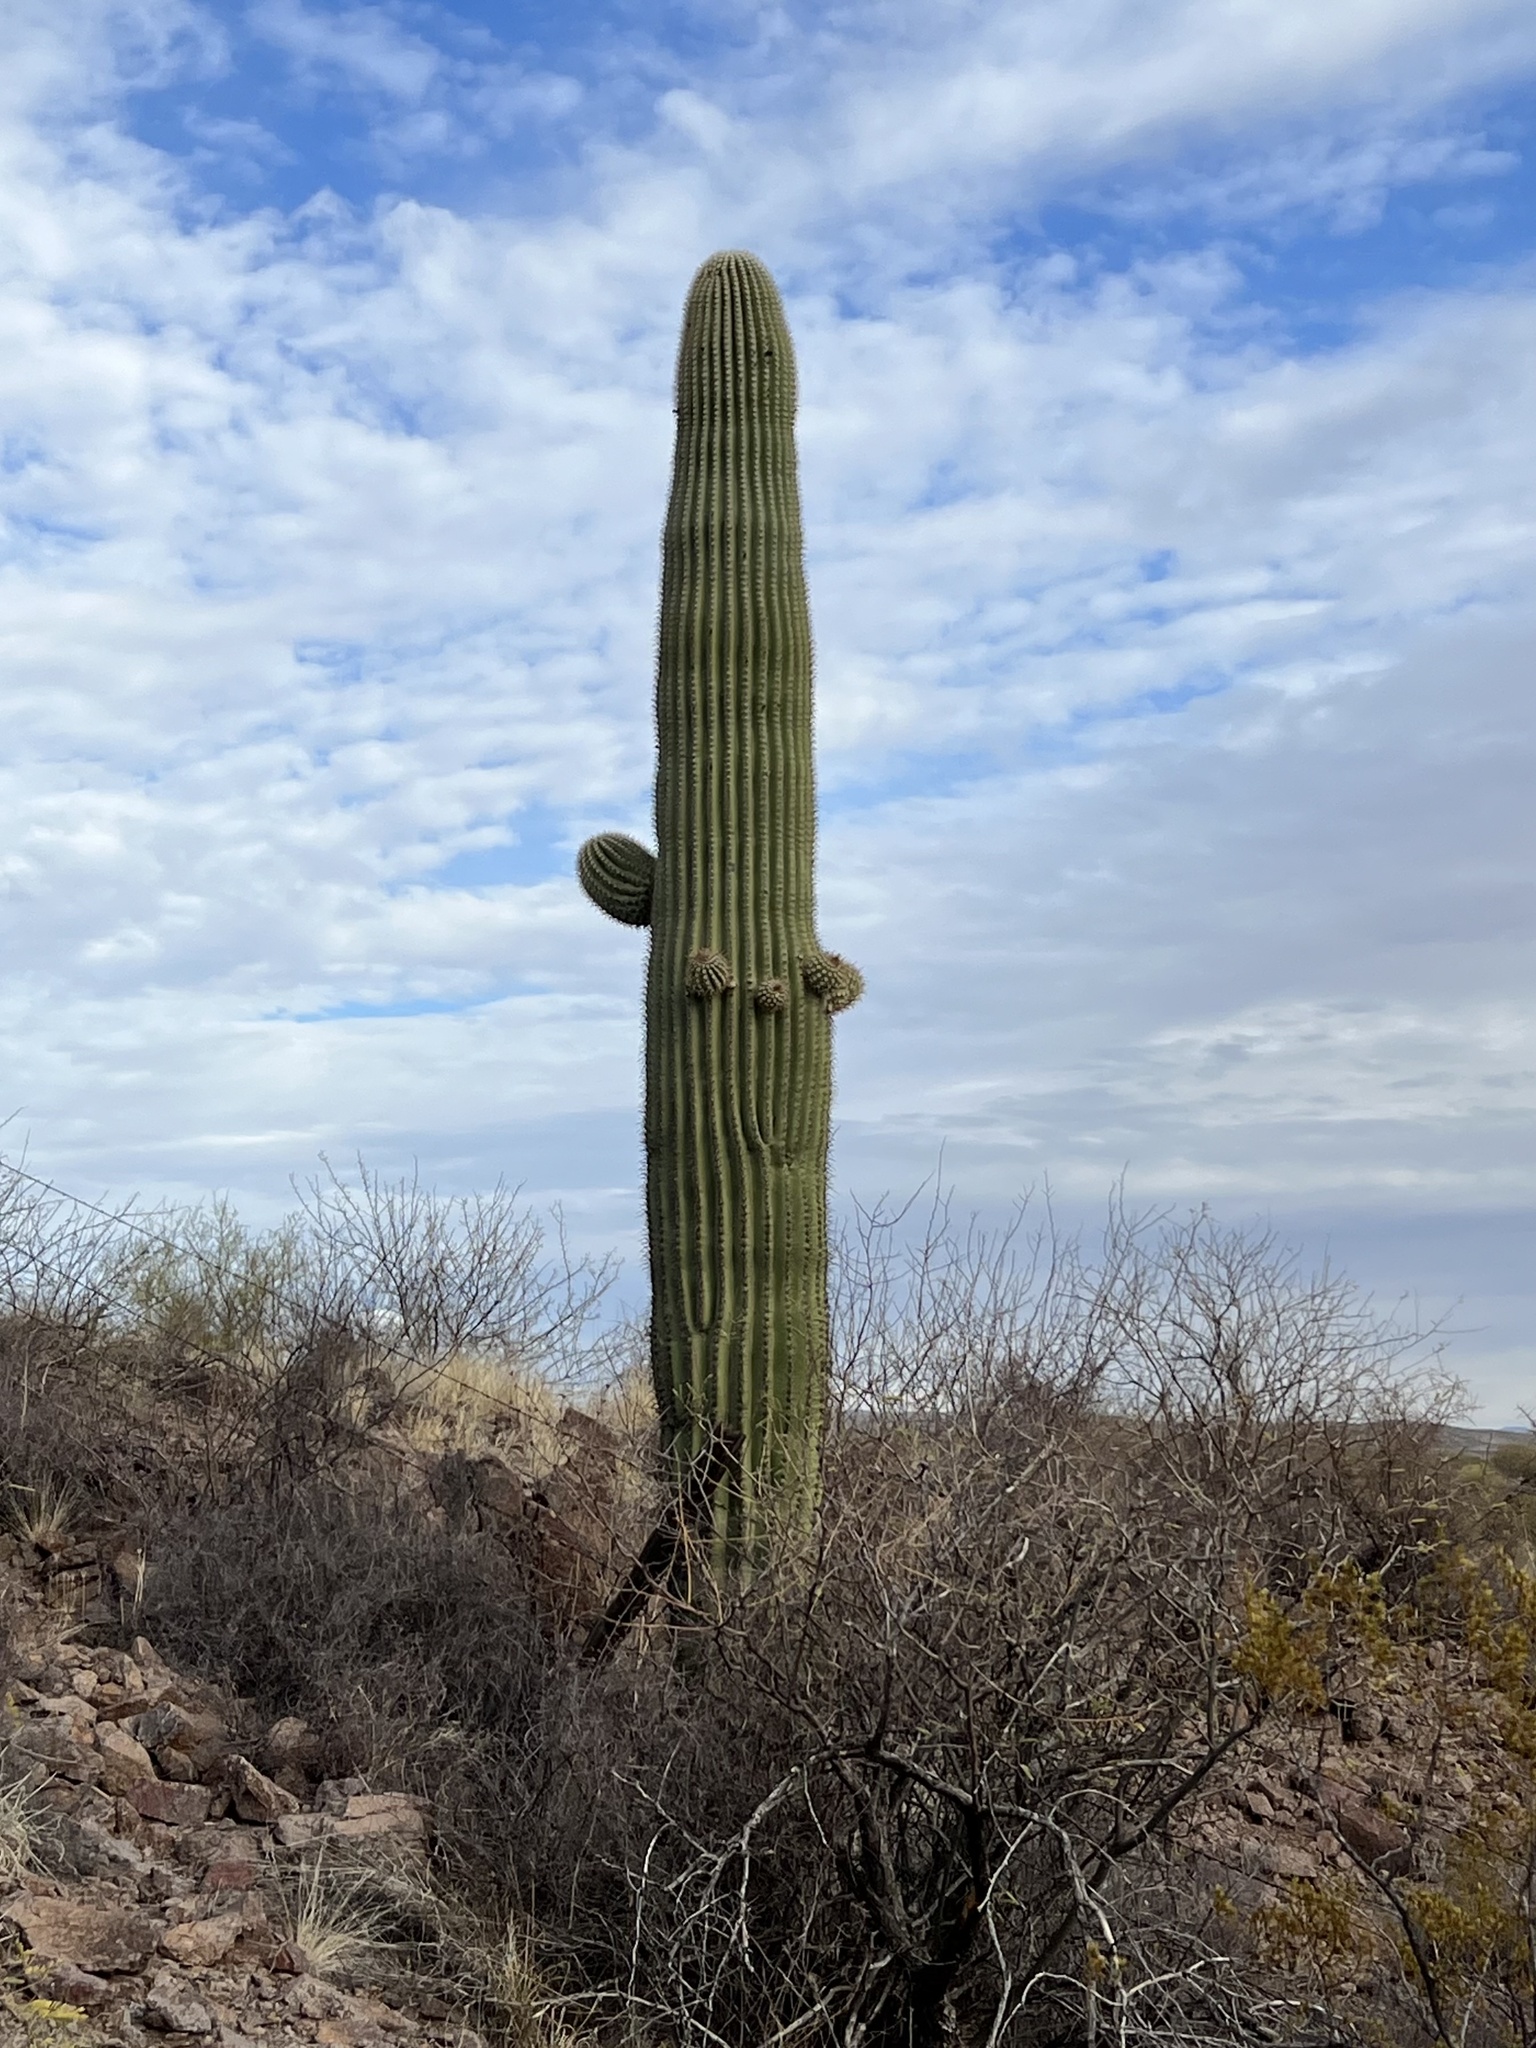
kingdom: Plantae
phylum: Tracheophyta
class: Magnoliopsida
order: Caryophyllales
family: Cactaceae
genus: Carnegiea
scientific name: Carnegiea gigantea
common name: Saguaro
